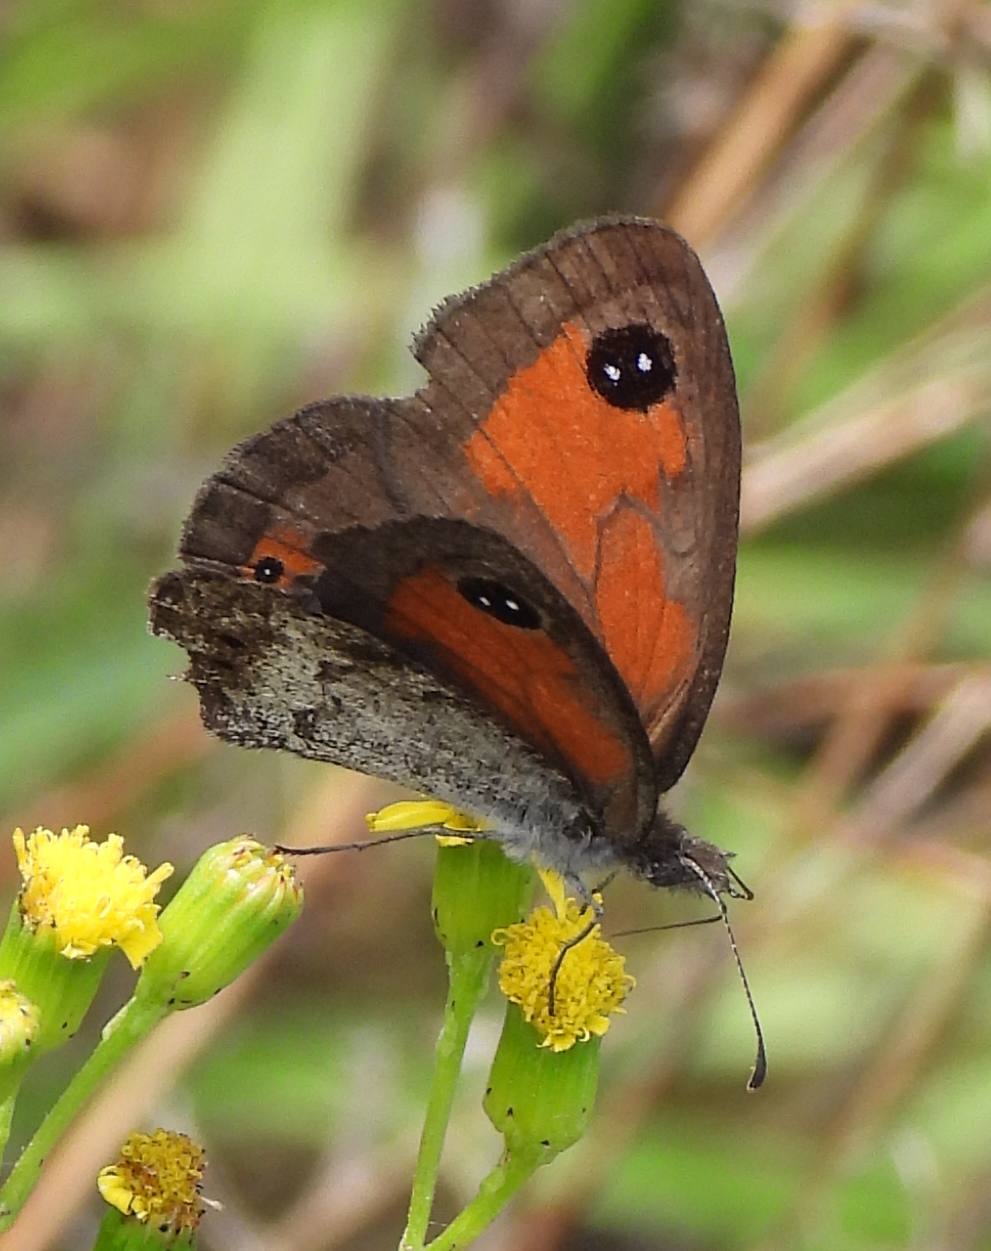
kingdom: Animalia
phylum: Arthropoda
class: Insecta
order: Lepidoptera
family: Nymphalidae
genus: Pseudonympha
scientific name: Pseudonympha magus
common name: Silver-bottom brown
